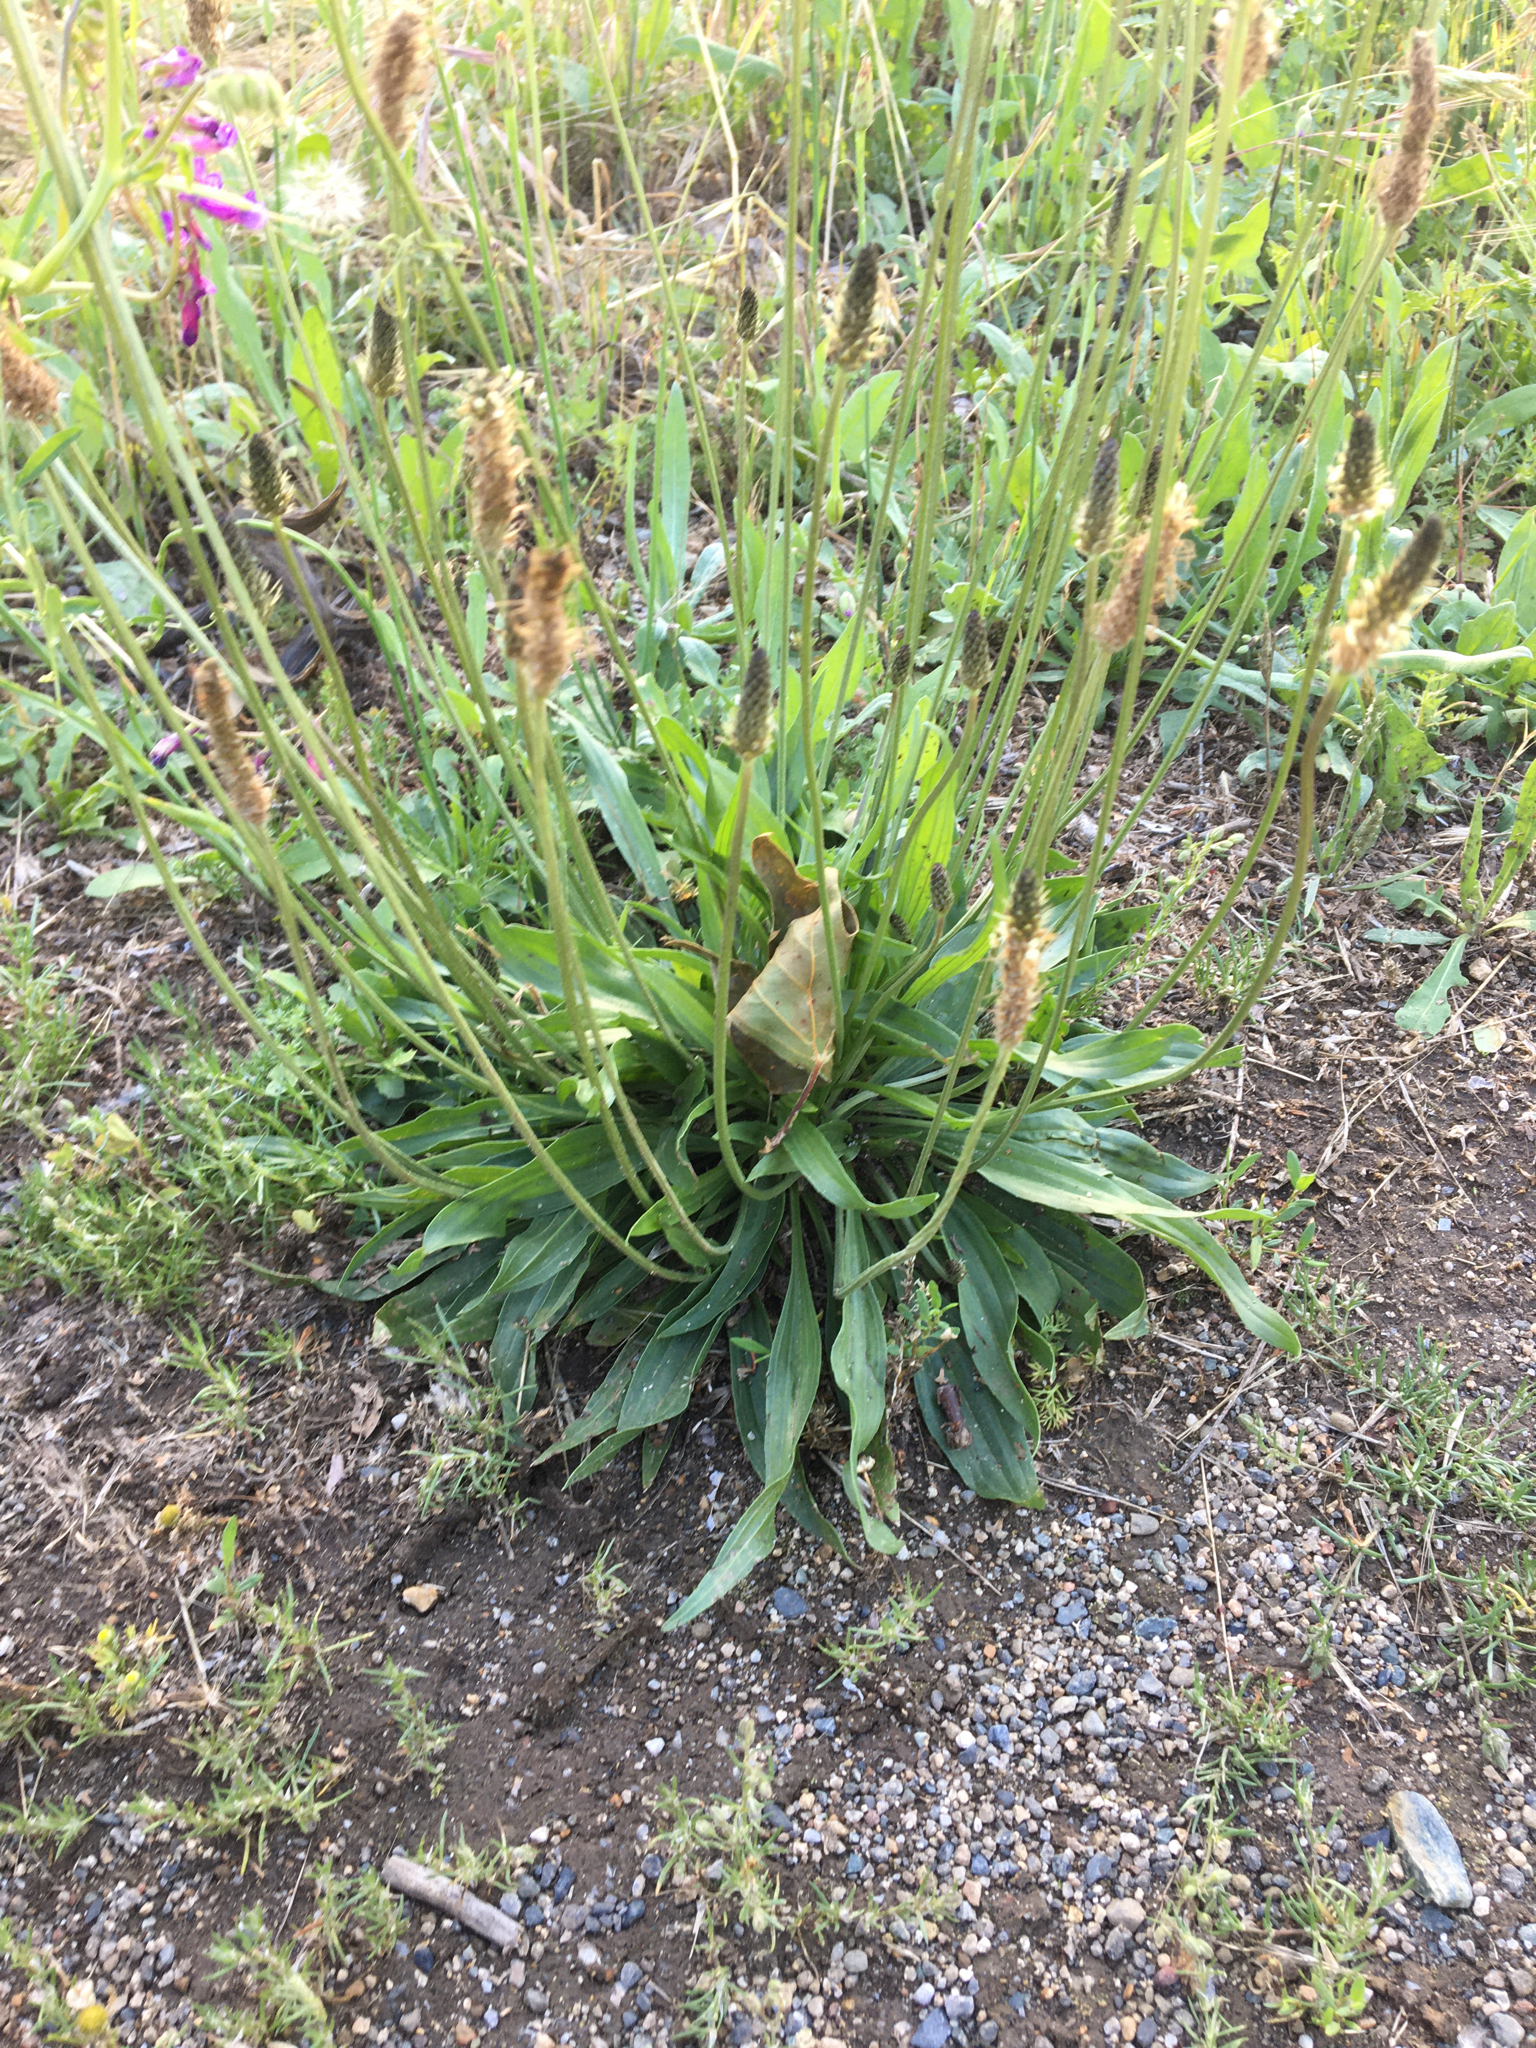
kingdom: Plantae
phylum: Tracheophyta
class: Magnoliopsida
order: Lamiales
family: Plantaginaceae
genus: Plantago
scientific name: Plantago lanceolata
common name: Ribwort plantain
